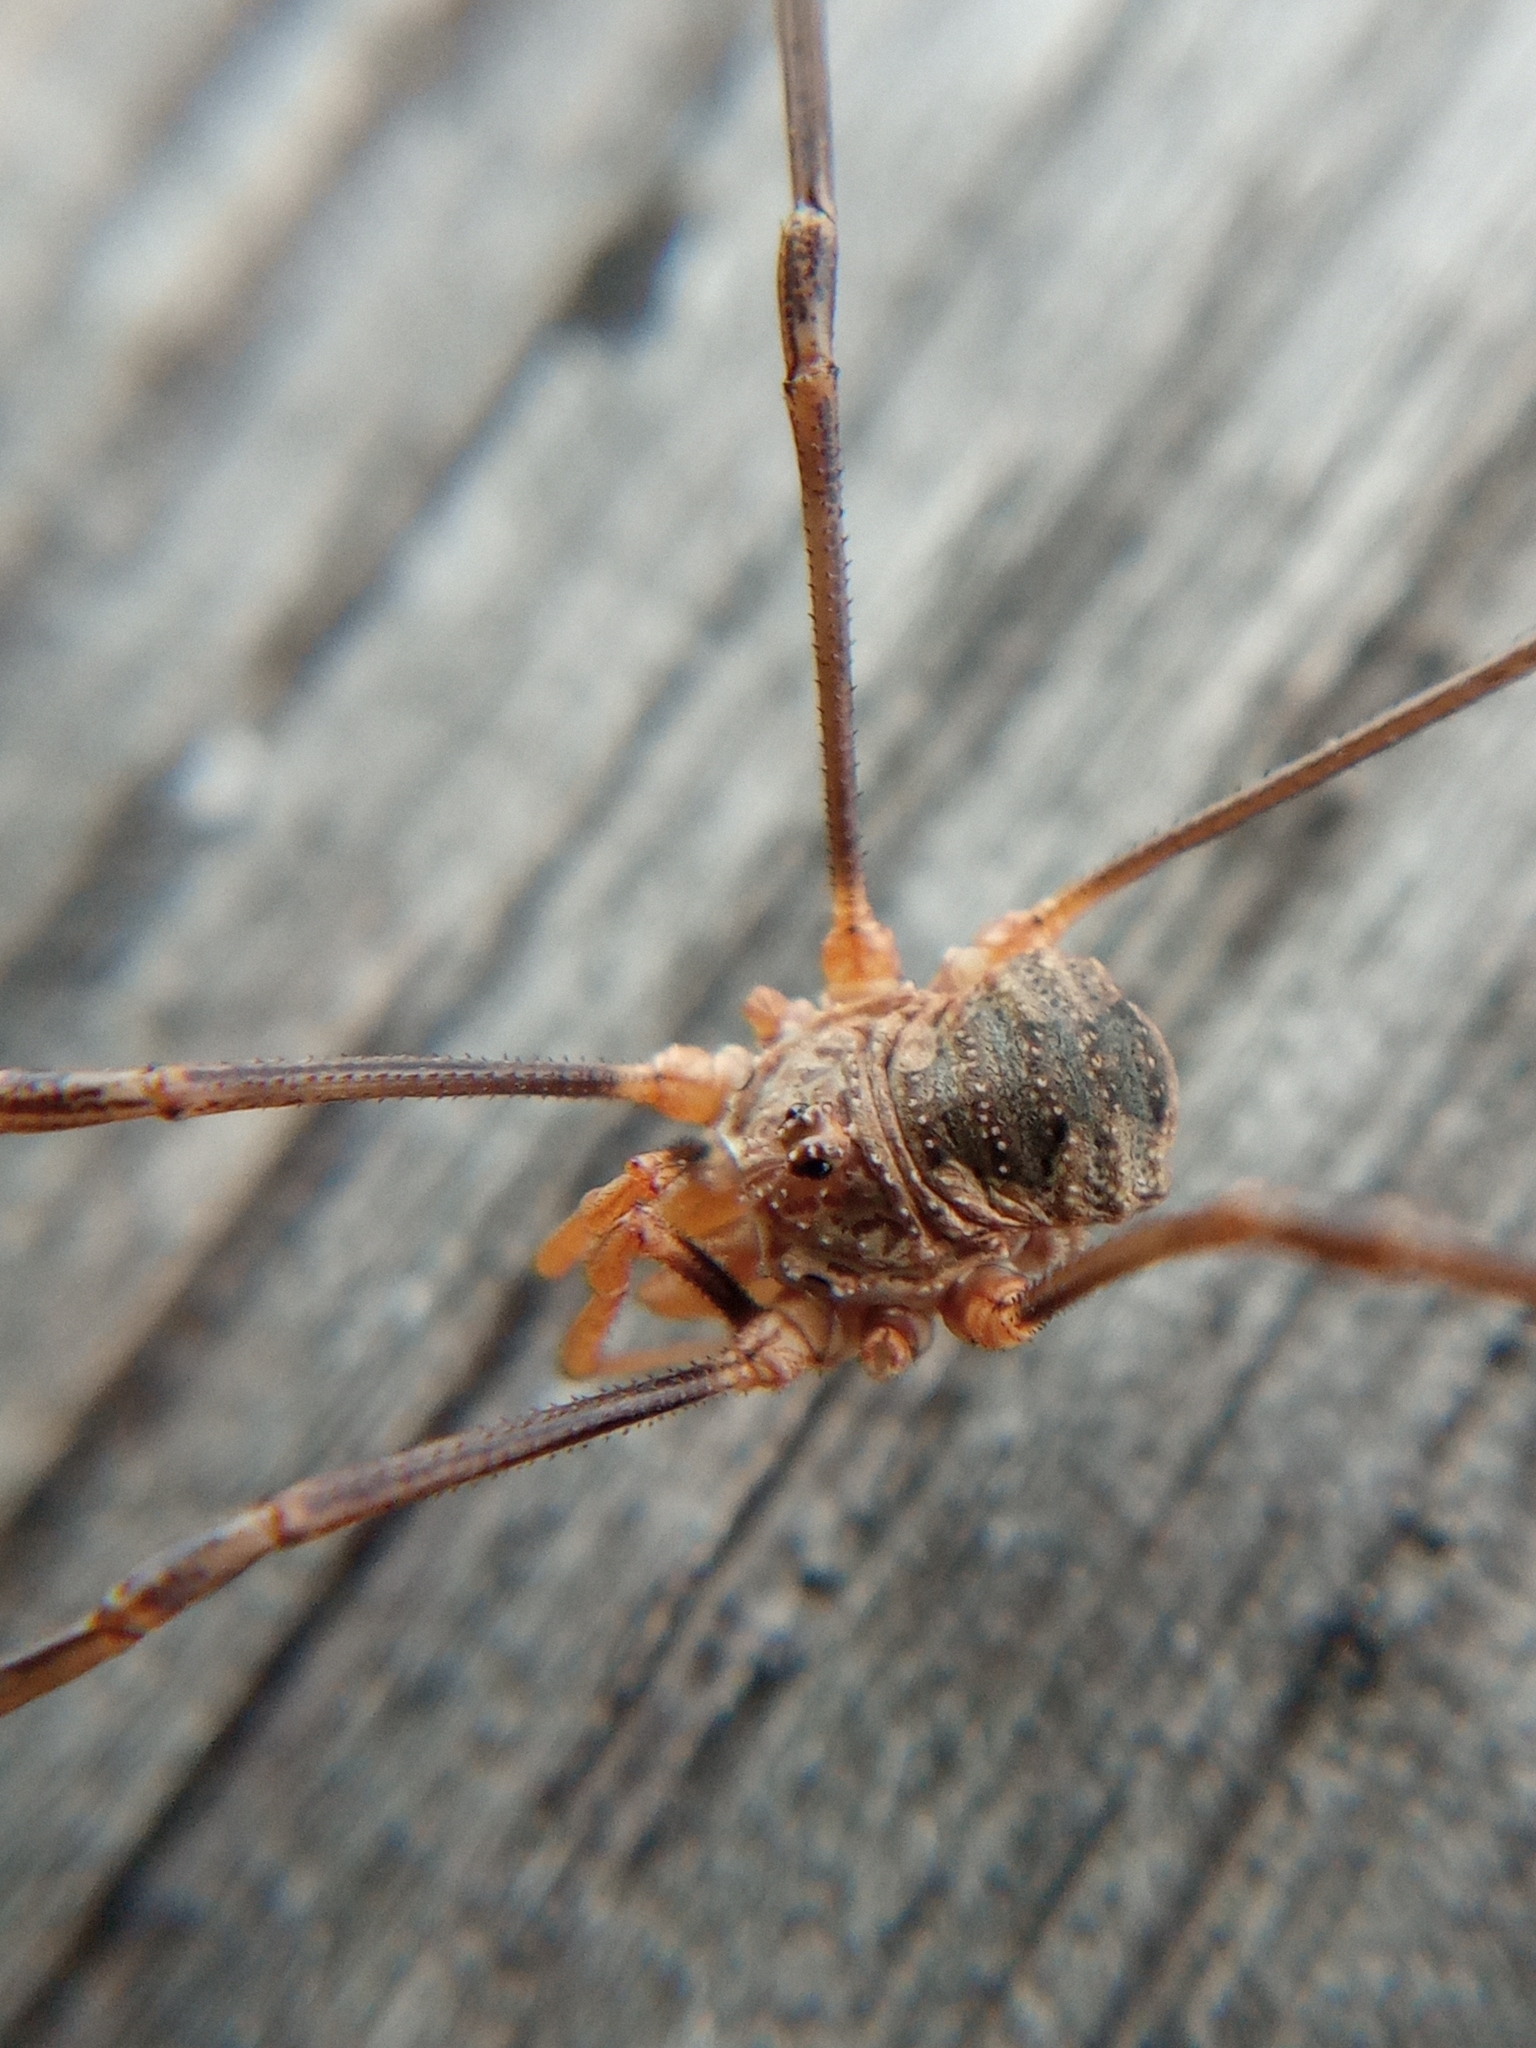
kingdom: Animalia
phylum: Arthropoda
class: Arachnida
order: Opiliones
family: Phalangiidae
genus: Phalangium
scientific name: Phalangium opilio
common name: Daddy longleg
